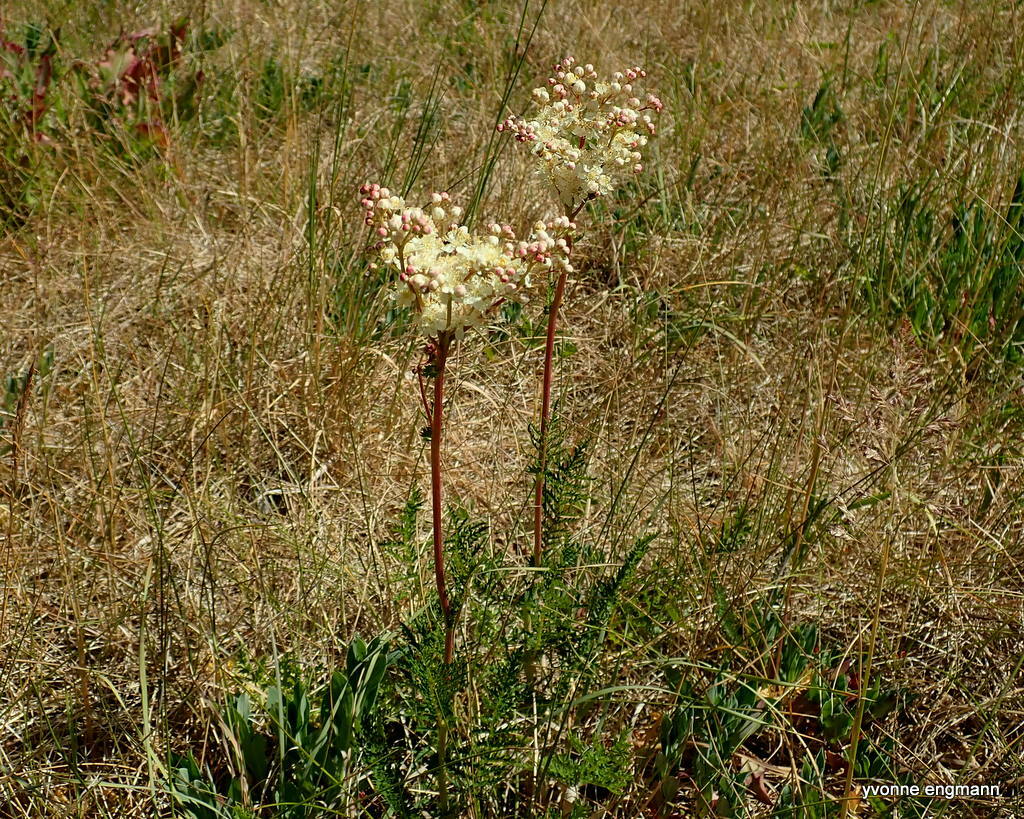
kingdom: Plantae
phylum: Tracheophyta
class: Magnoliopsida
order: Rosales
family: Rosaceae
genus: Filipendula
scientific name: Filipendula vulgaris
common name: Dropwort
